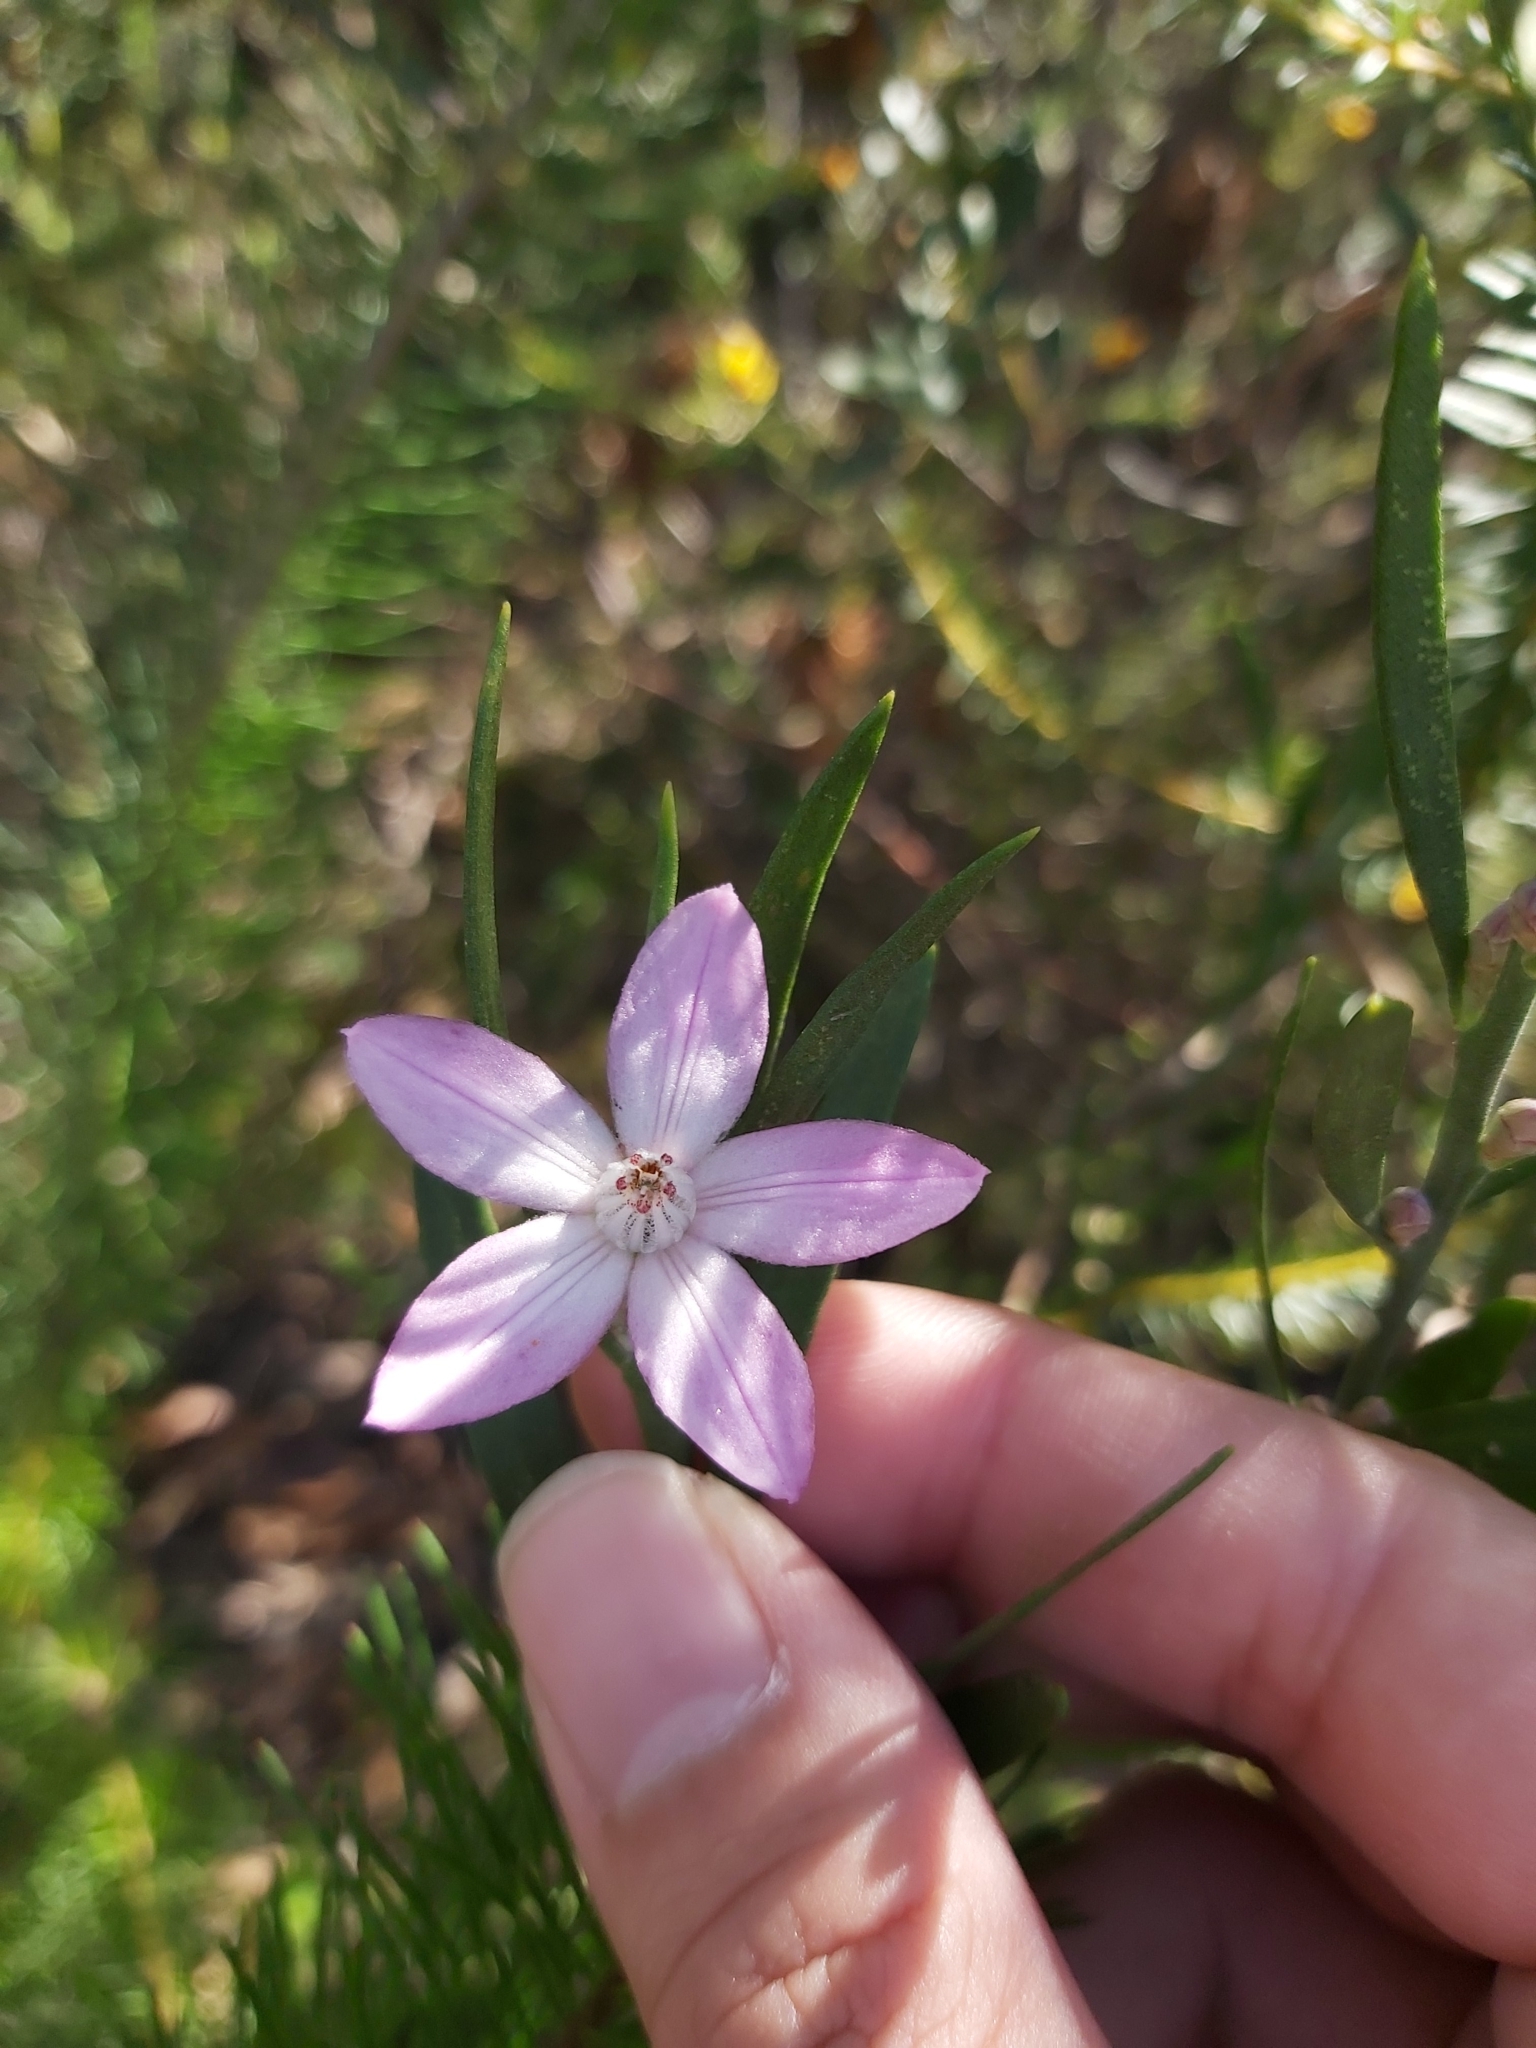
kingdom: Plantae
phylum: Tracheophyta
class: Magnoliopsida
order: Sapindales
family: Rutaceae
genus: Eriostemon
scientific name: Eriostemon australasius
